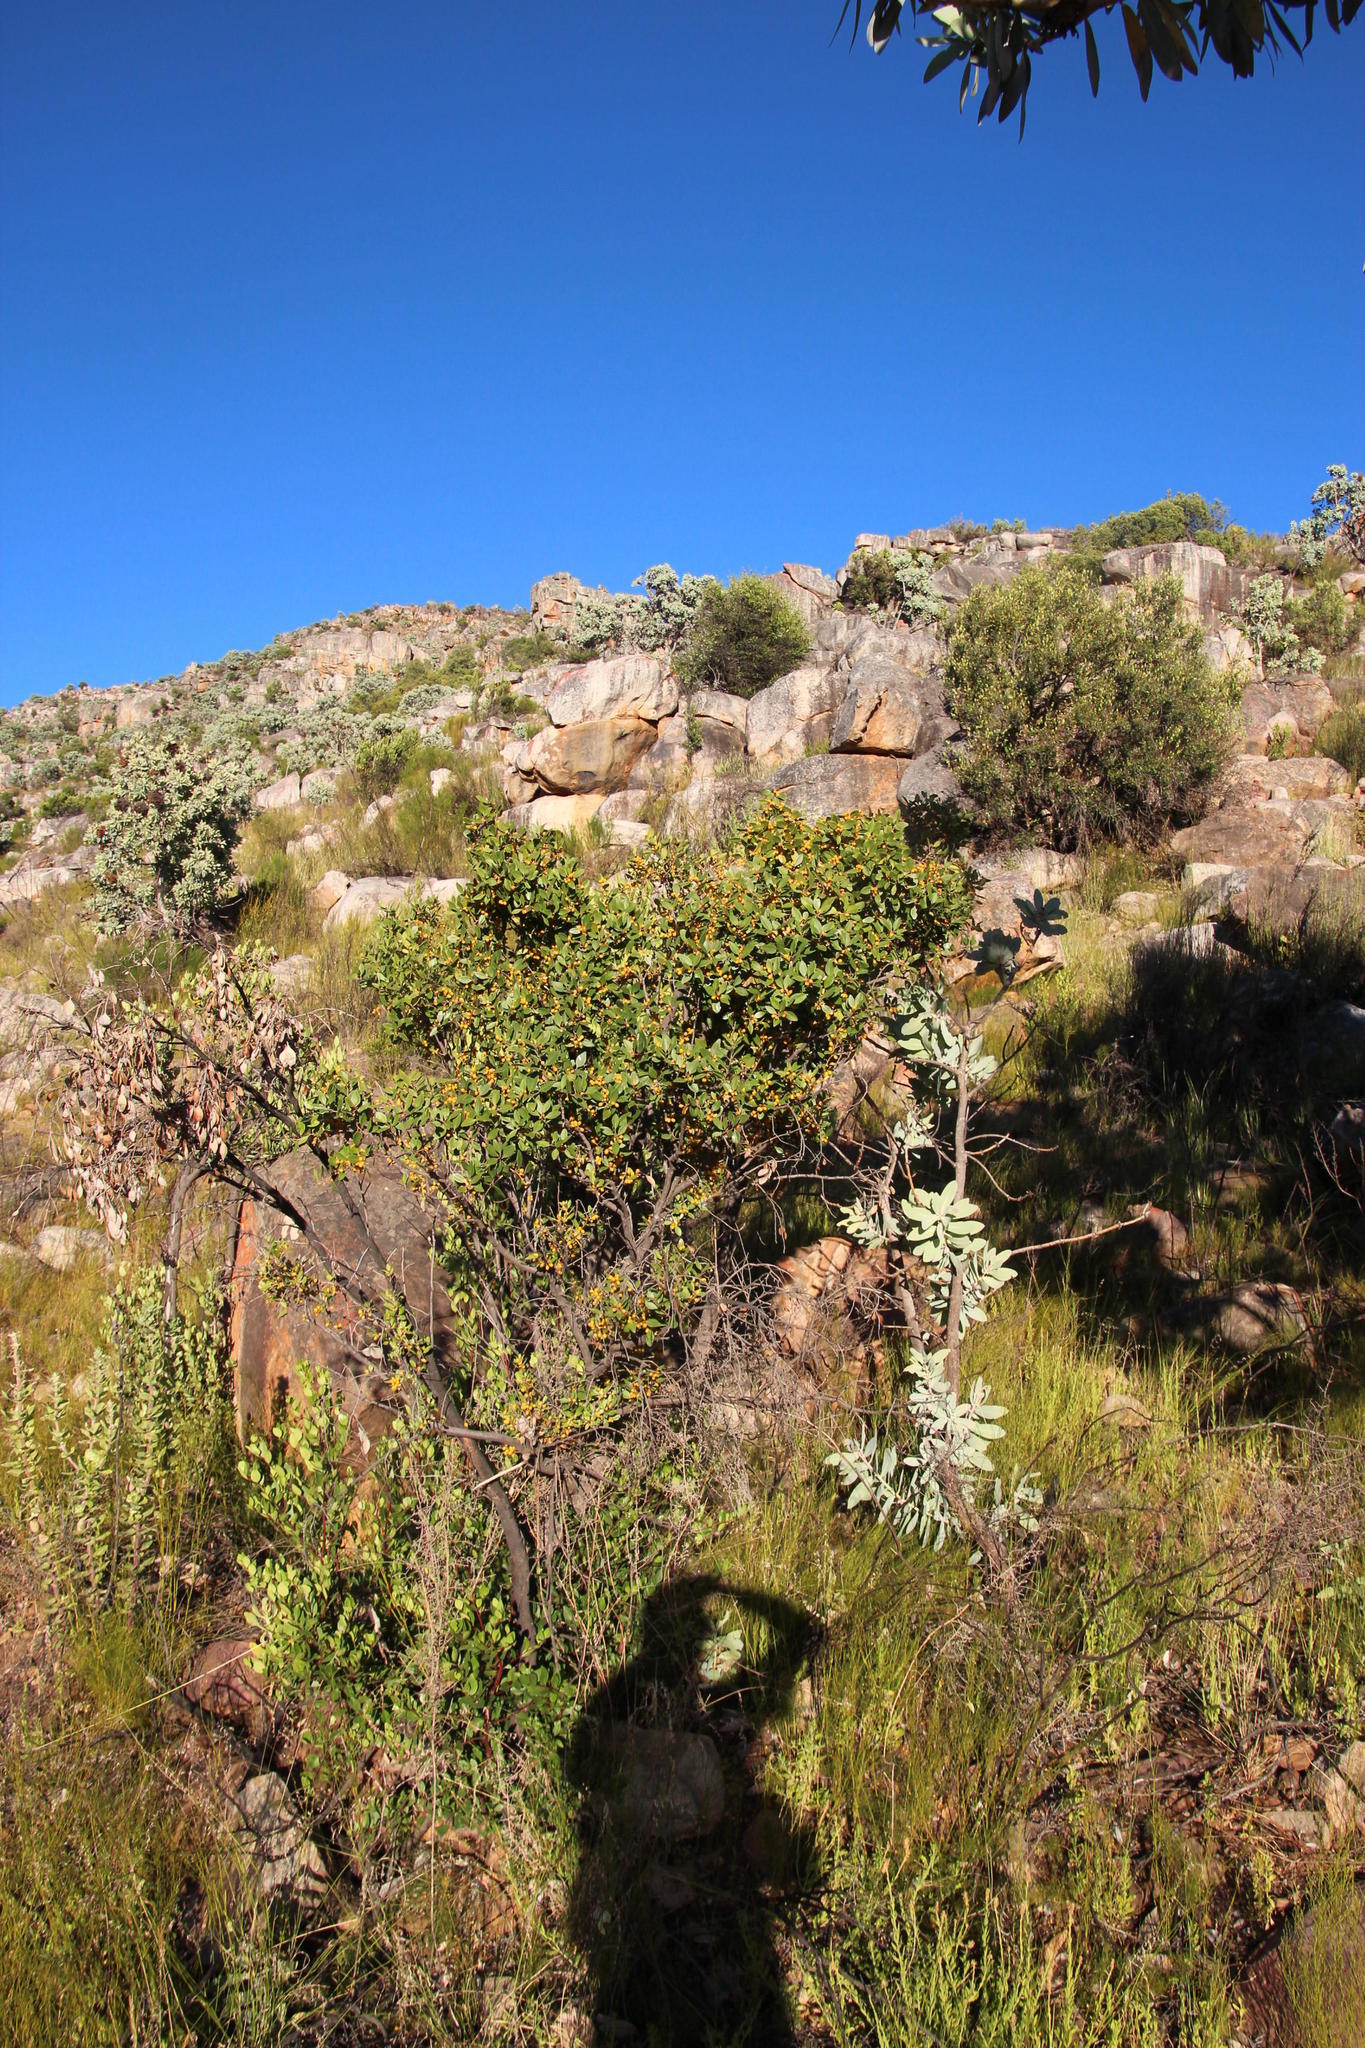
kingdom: Plantae
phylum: Tracheophyta
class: Magnoliopsida
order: Celastrales
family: Celastraceae
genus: Gymnosporia
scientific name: Gymnosporia laurina
